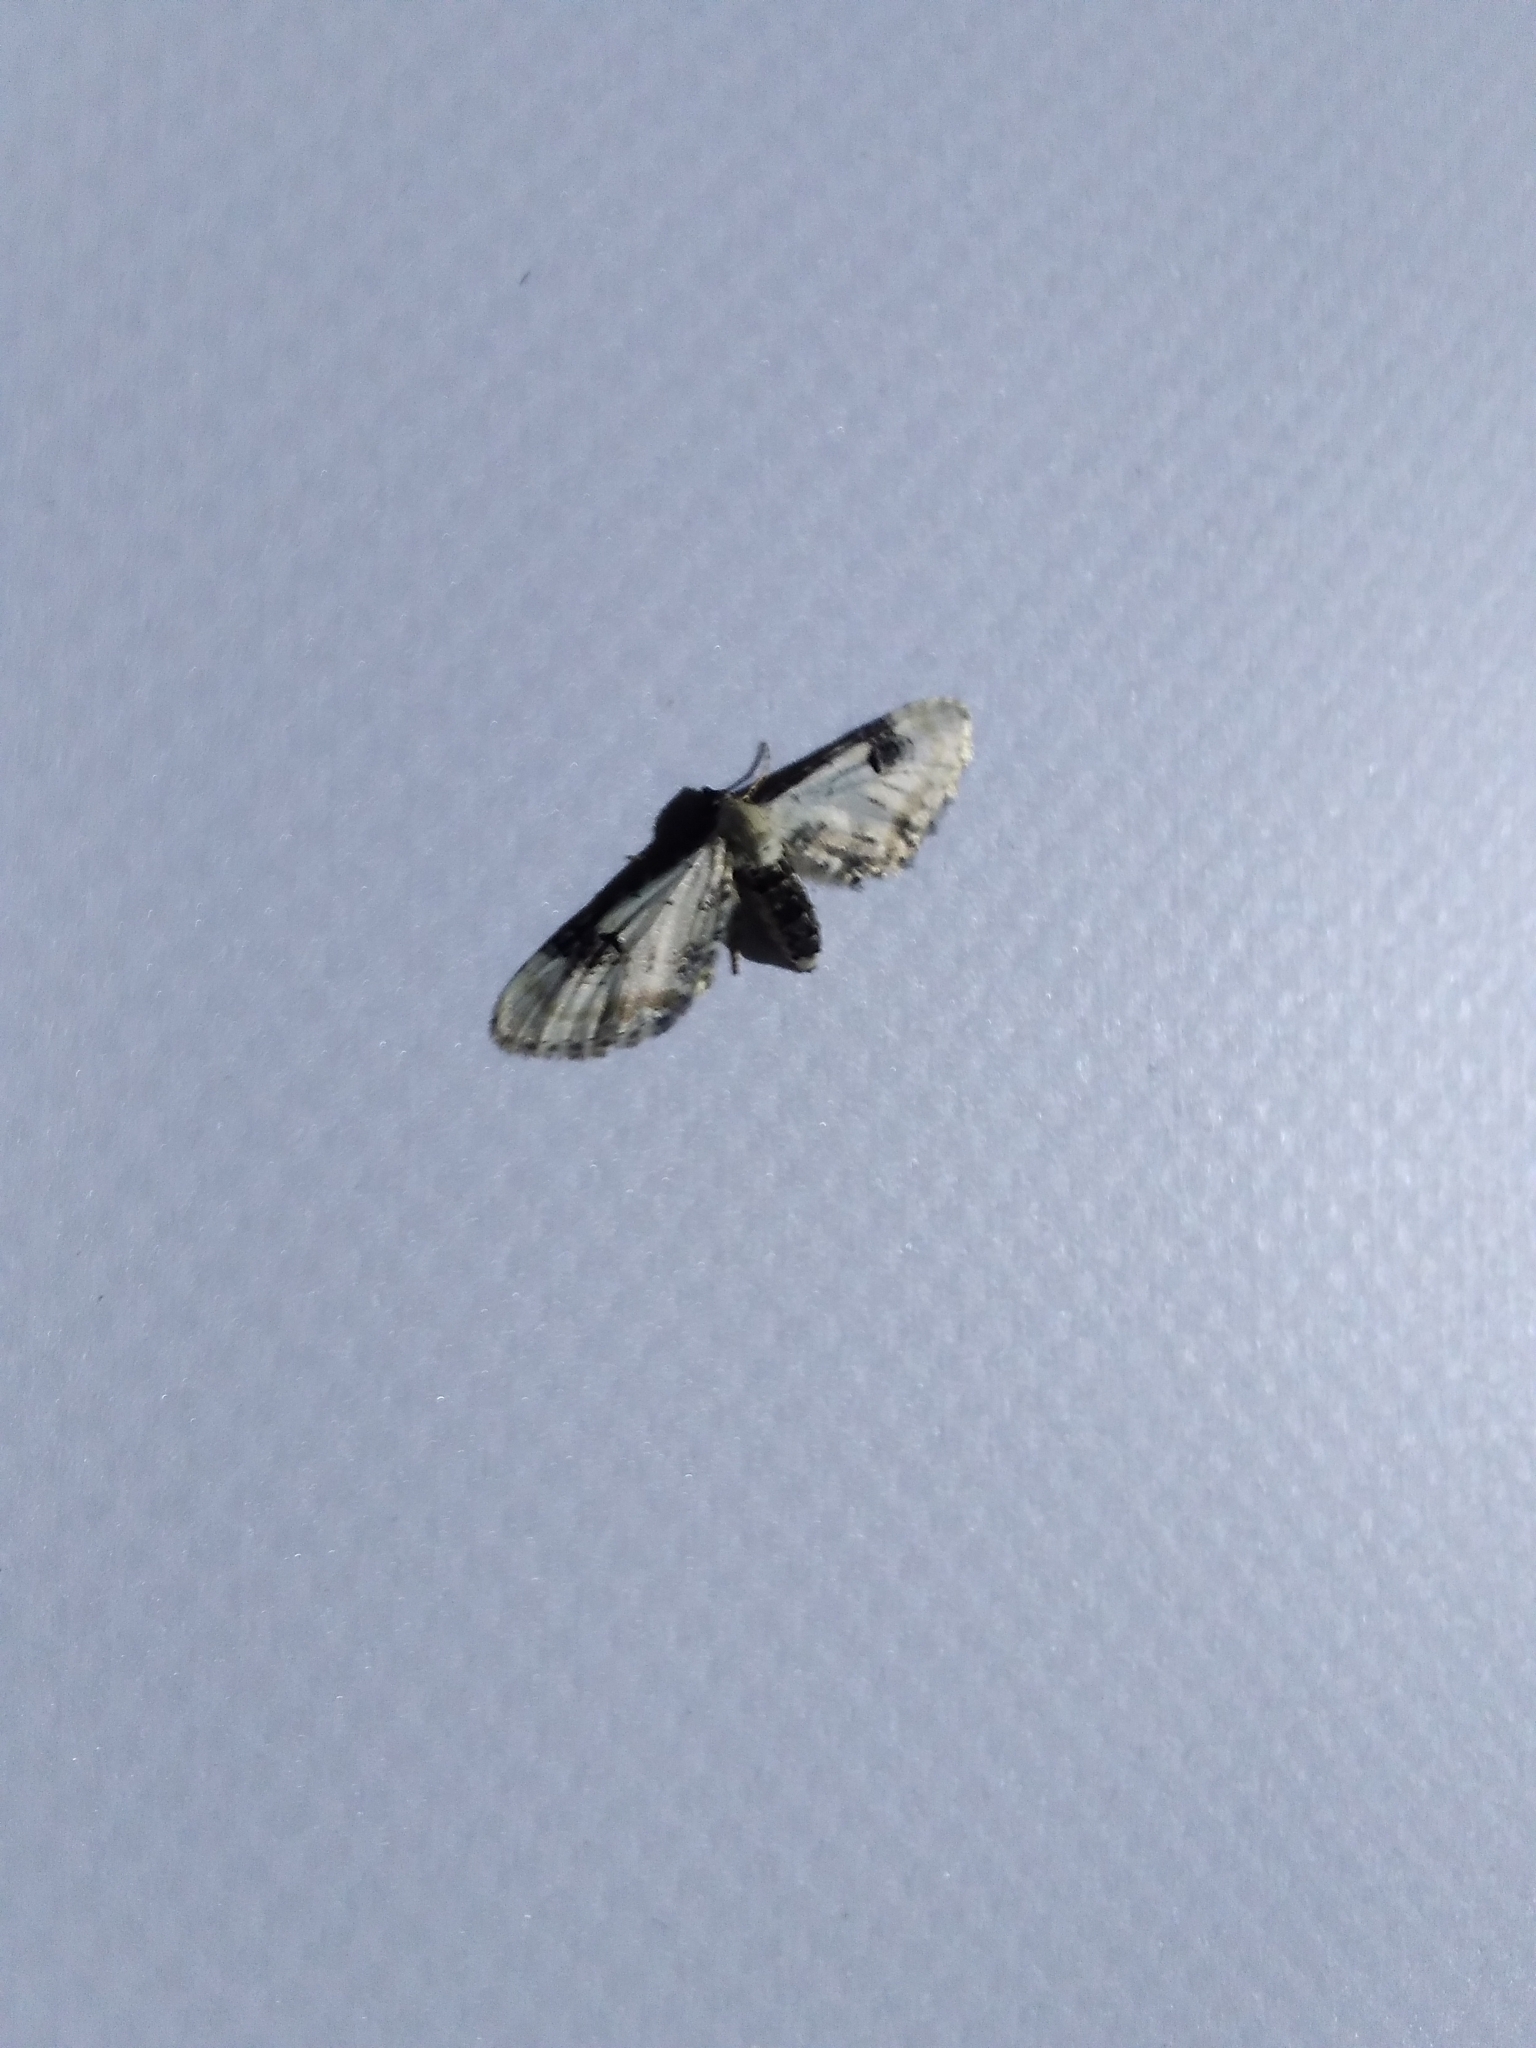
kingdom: Animalia
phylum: Arthropoda
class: Insecta
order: Lepidoptera
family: Geometridae
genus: Eupithecia
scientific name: Eupithecia centaureata
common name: Lime-speck pug
